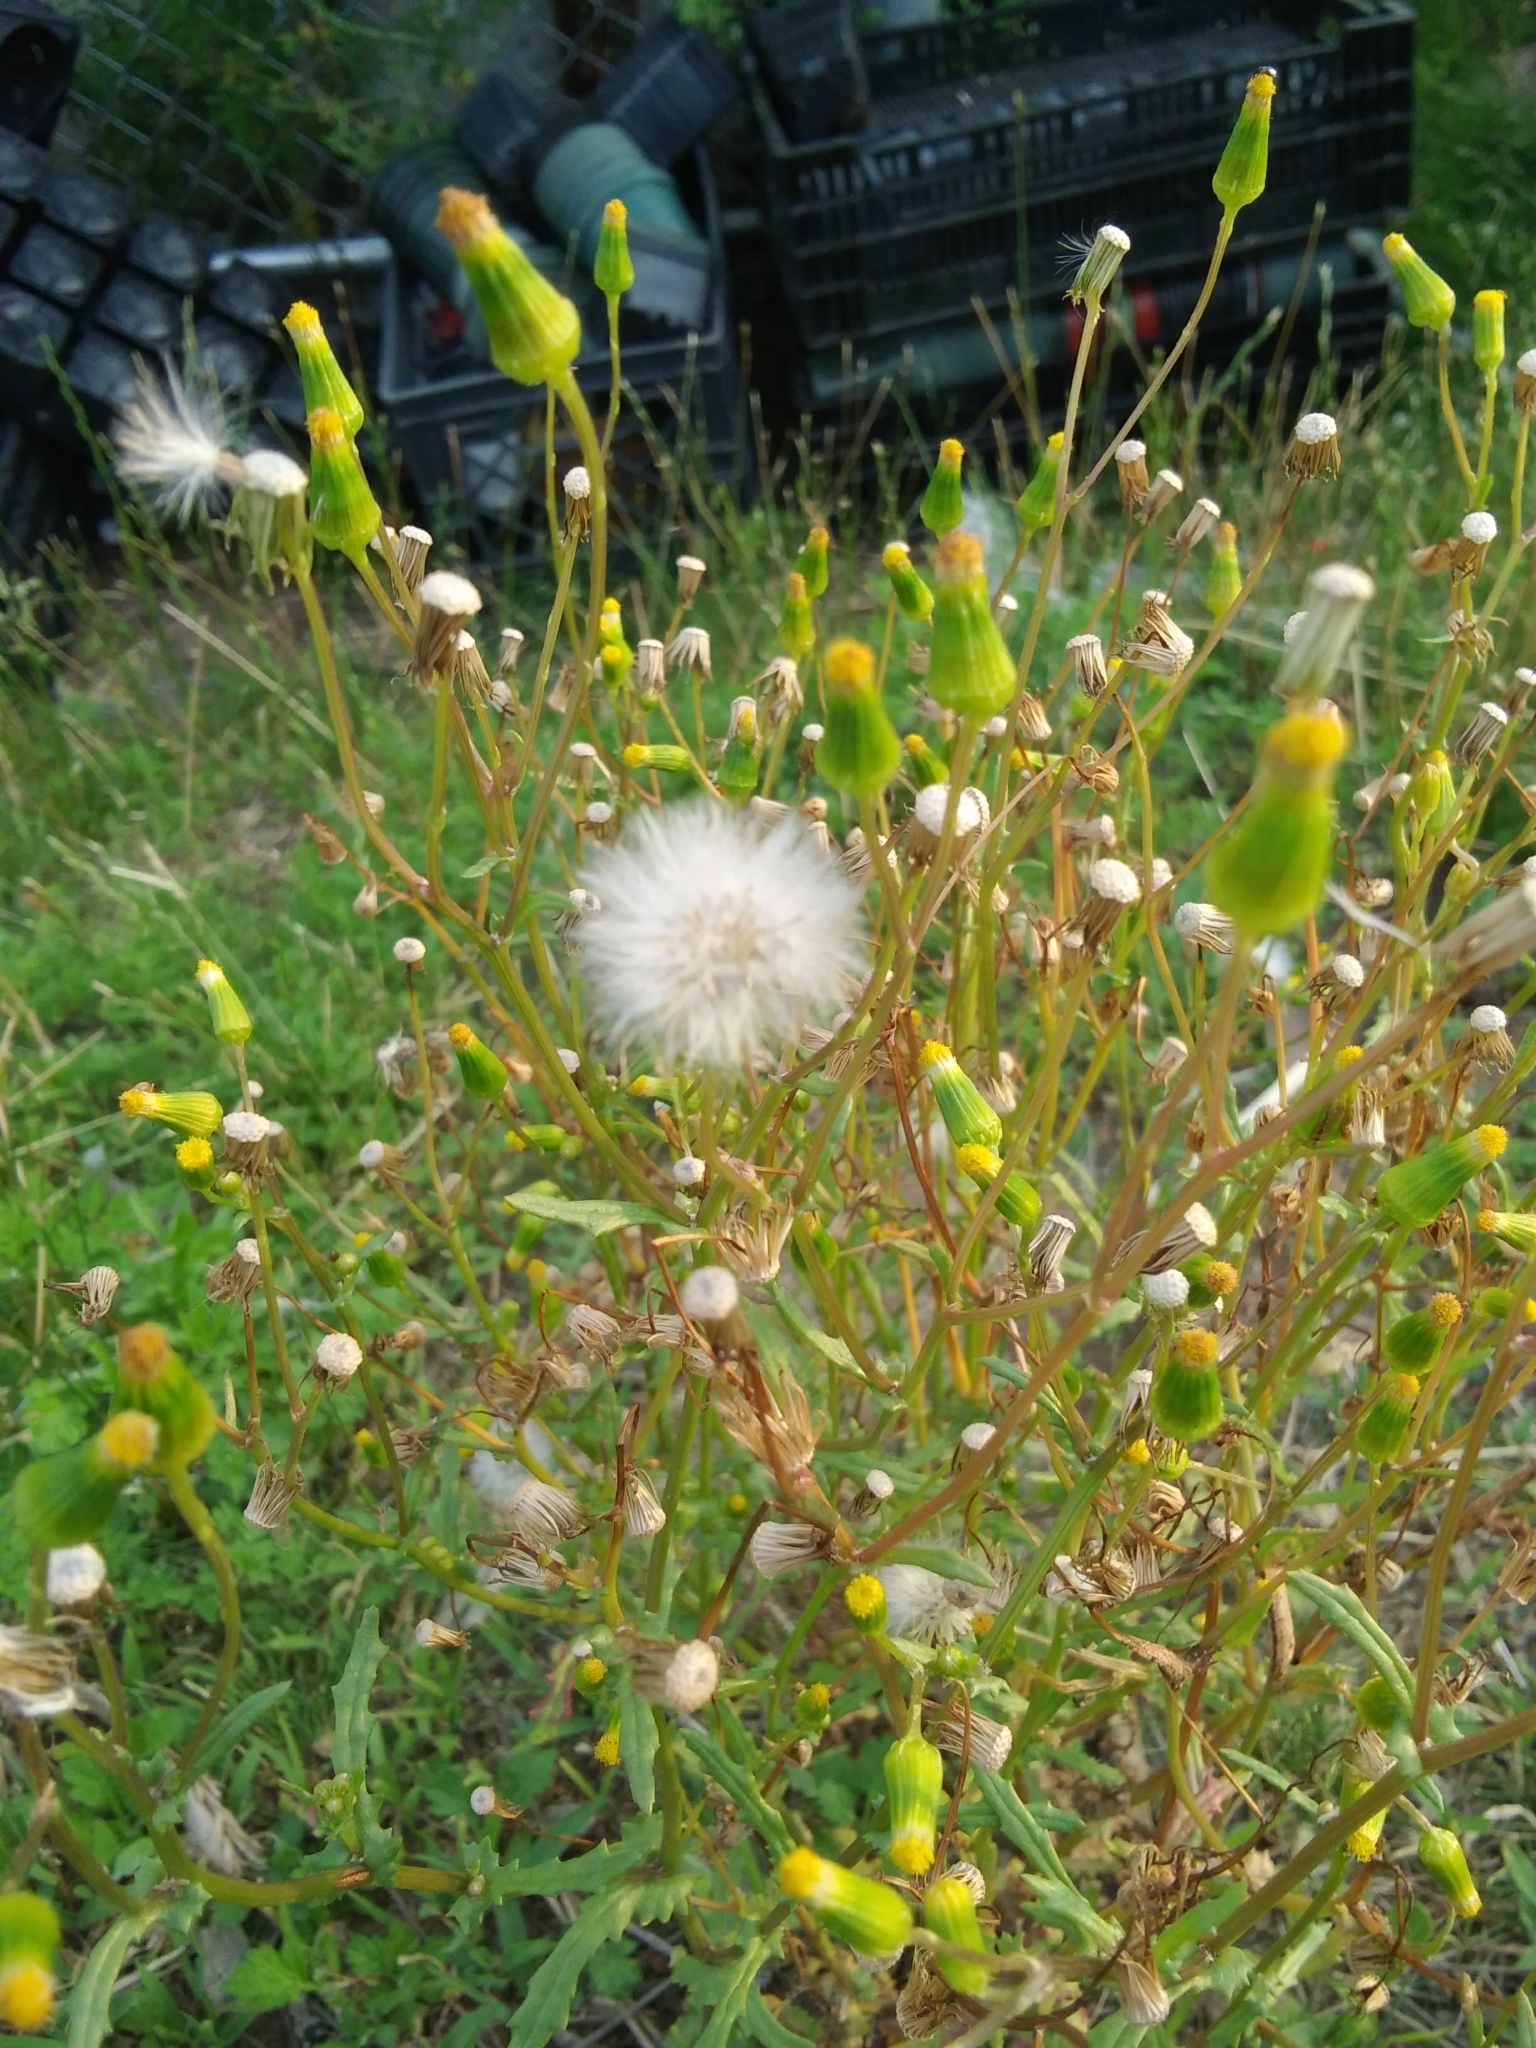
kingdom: Plantae
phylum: Tracheophyta
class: Magnoliopsida
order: Asterales
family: Asteraceae
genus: Senecio
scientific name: Senecio vulgaris
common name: Old-man-in-the-spring
